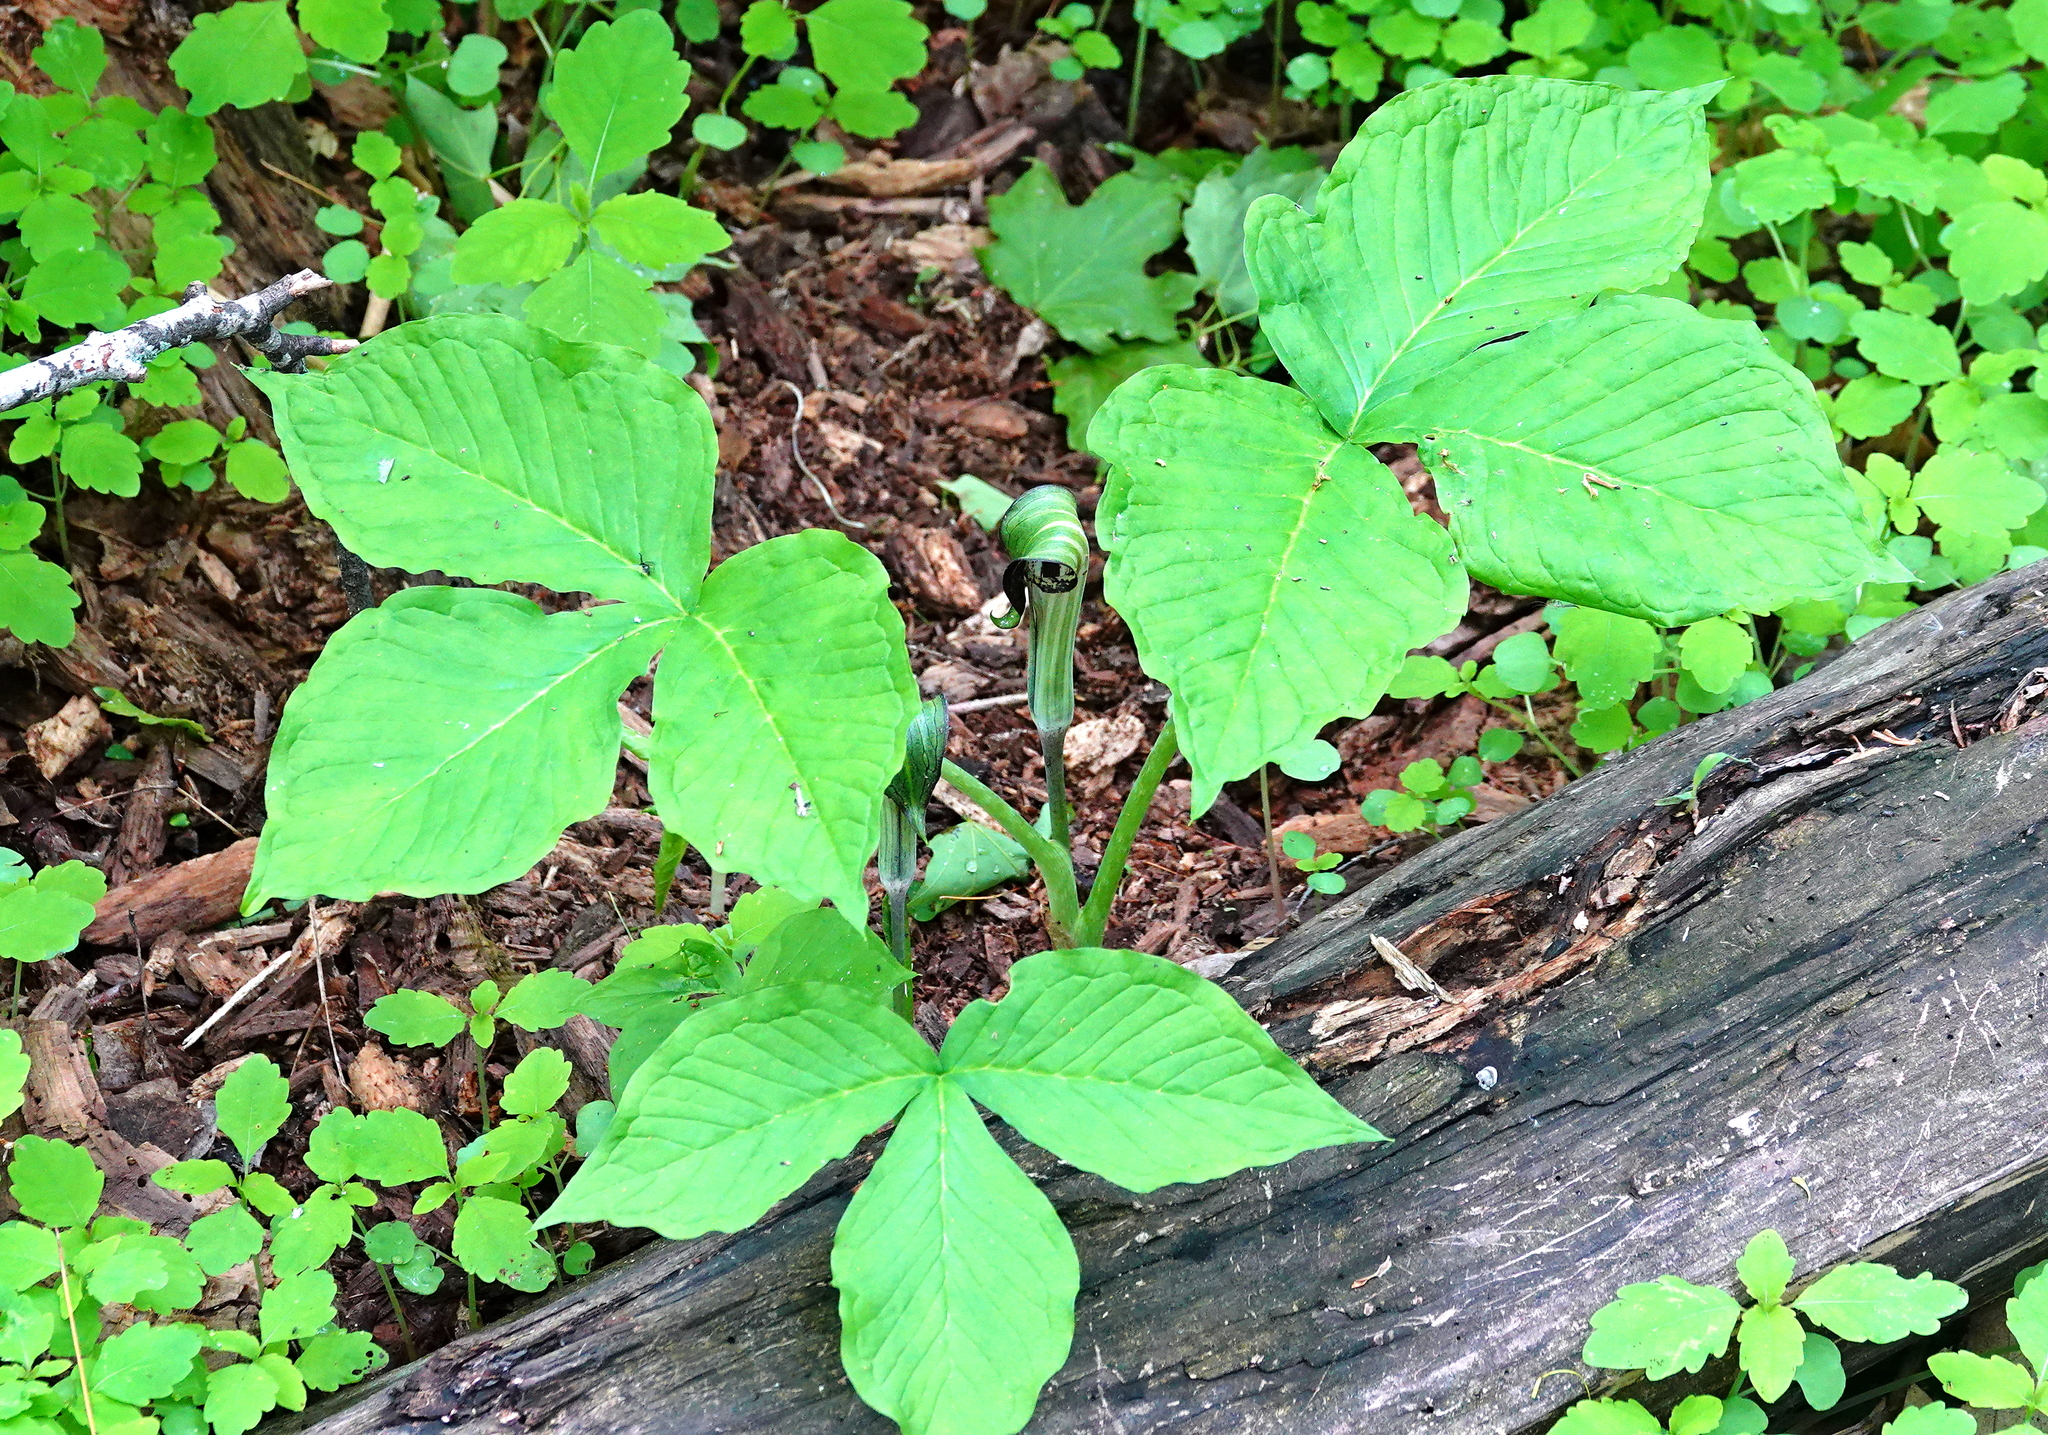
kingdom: Plantae
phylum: Tracheophyta
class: Liliopsida
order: Alismatales
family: Araceae
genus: Arisaema
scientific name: Arisaema triphyllum
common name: Jack-in-the-pulpit
